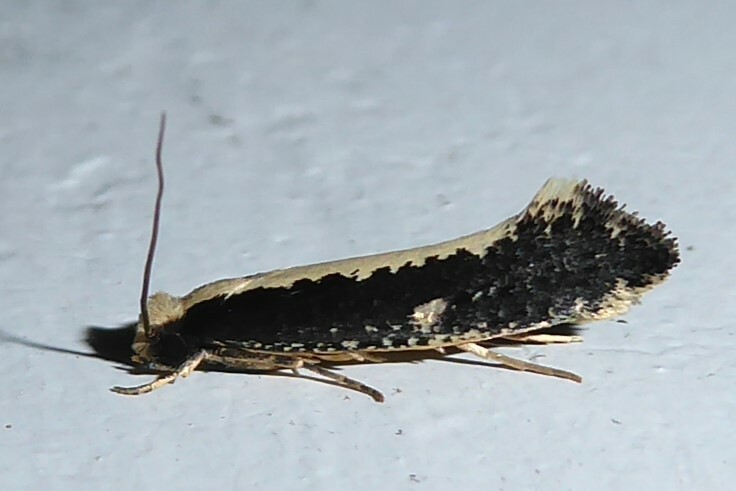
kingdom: Animalia
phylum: Arthropoda
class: Insecta
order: Lepidoptera
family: Tineidae
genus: Monopis
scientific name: Monopis ethelella
